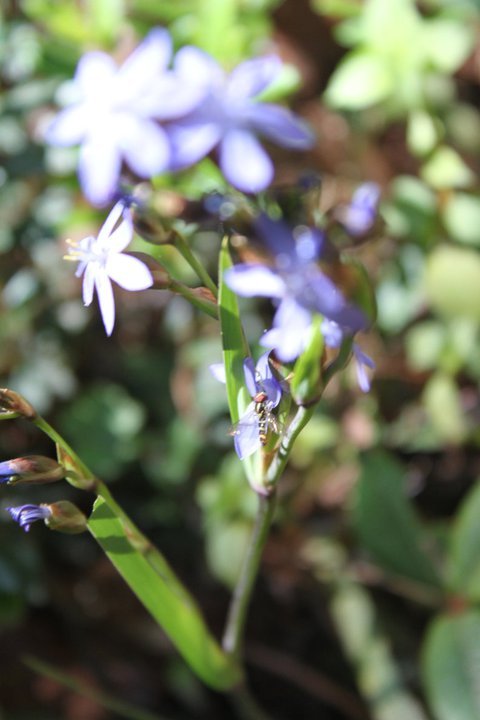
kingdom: Plantae
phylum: Tracheophyta
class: Liliopsida
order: Asparagales
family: Iridaceae
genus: Orthrosanthus
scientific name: Orthrosanthus exsertus
